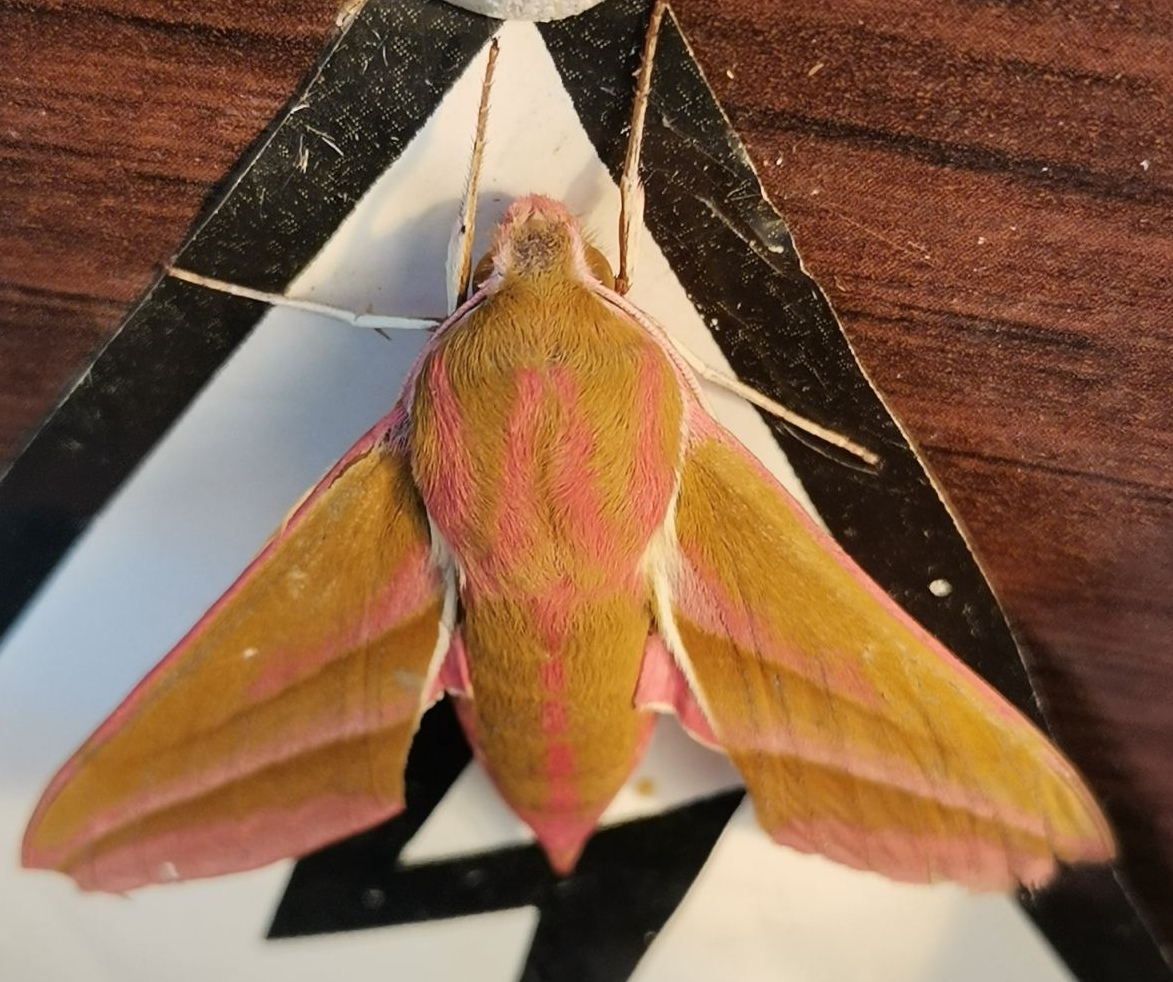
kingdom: Animalia
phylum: Arthropoda
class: Insecta
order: Lepidoptera
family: Sphingidae
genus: Deilephila
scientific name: Deilephila elpenor
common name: Elephant hawk-moth
